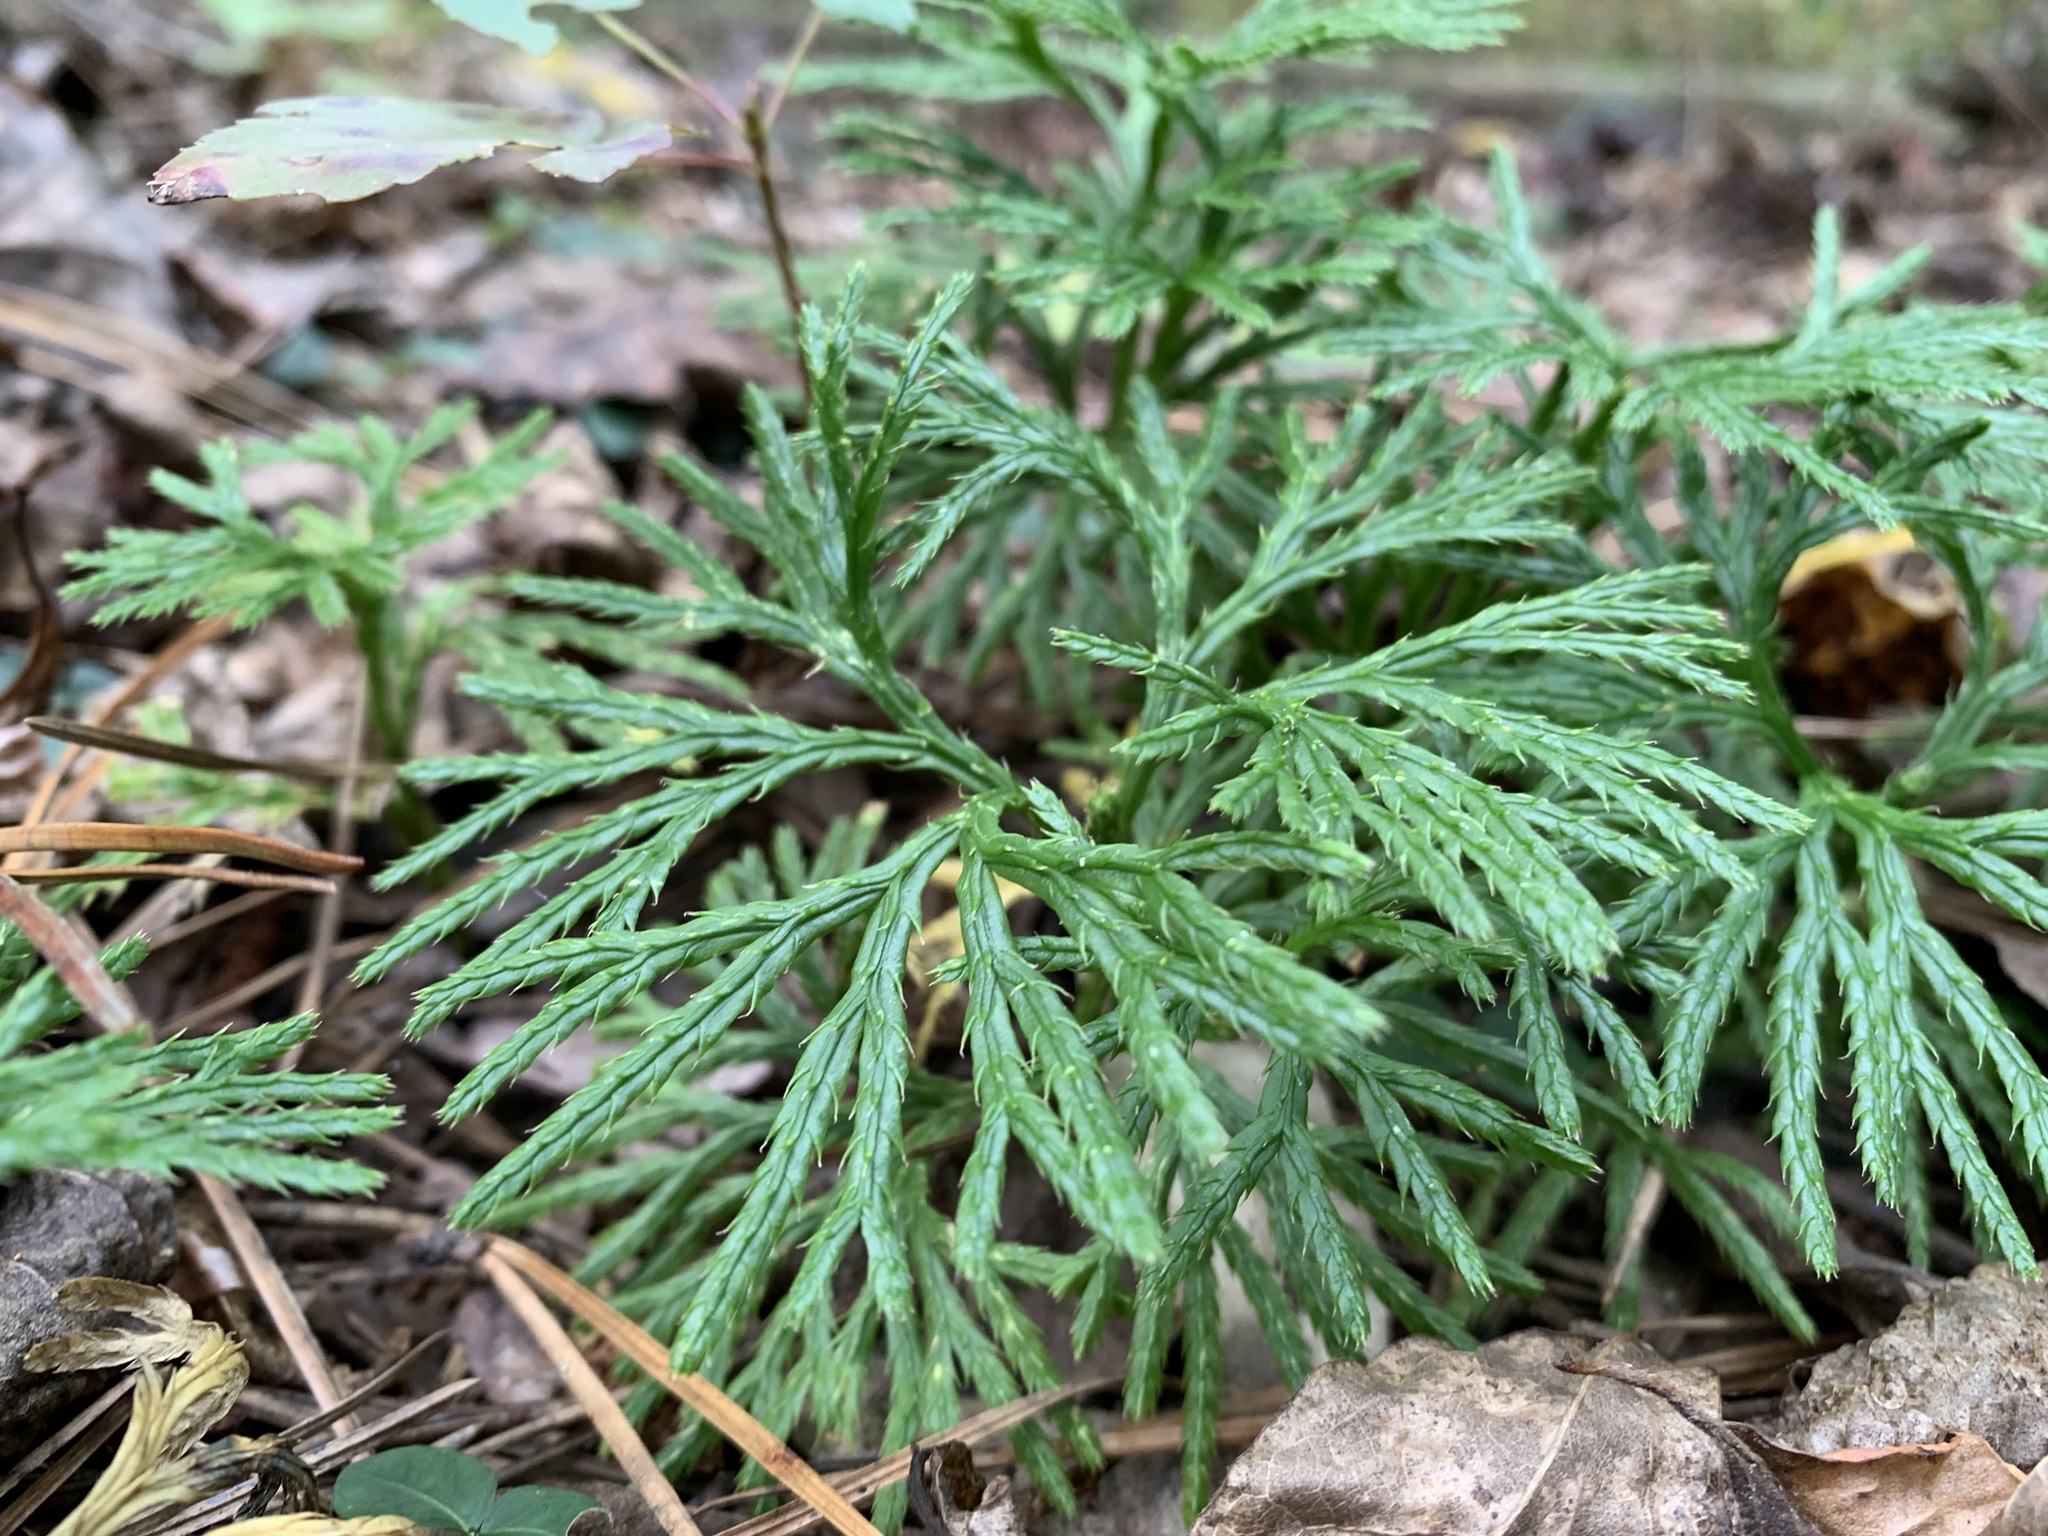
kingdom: Plantae
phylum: Tracheophyta
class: Lycopodiopsida
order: Lycopodiales
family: Lycopodiaceae
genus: Diphasiastrum
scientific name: Diphasiastrum digitatum
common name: Southern running-pine
